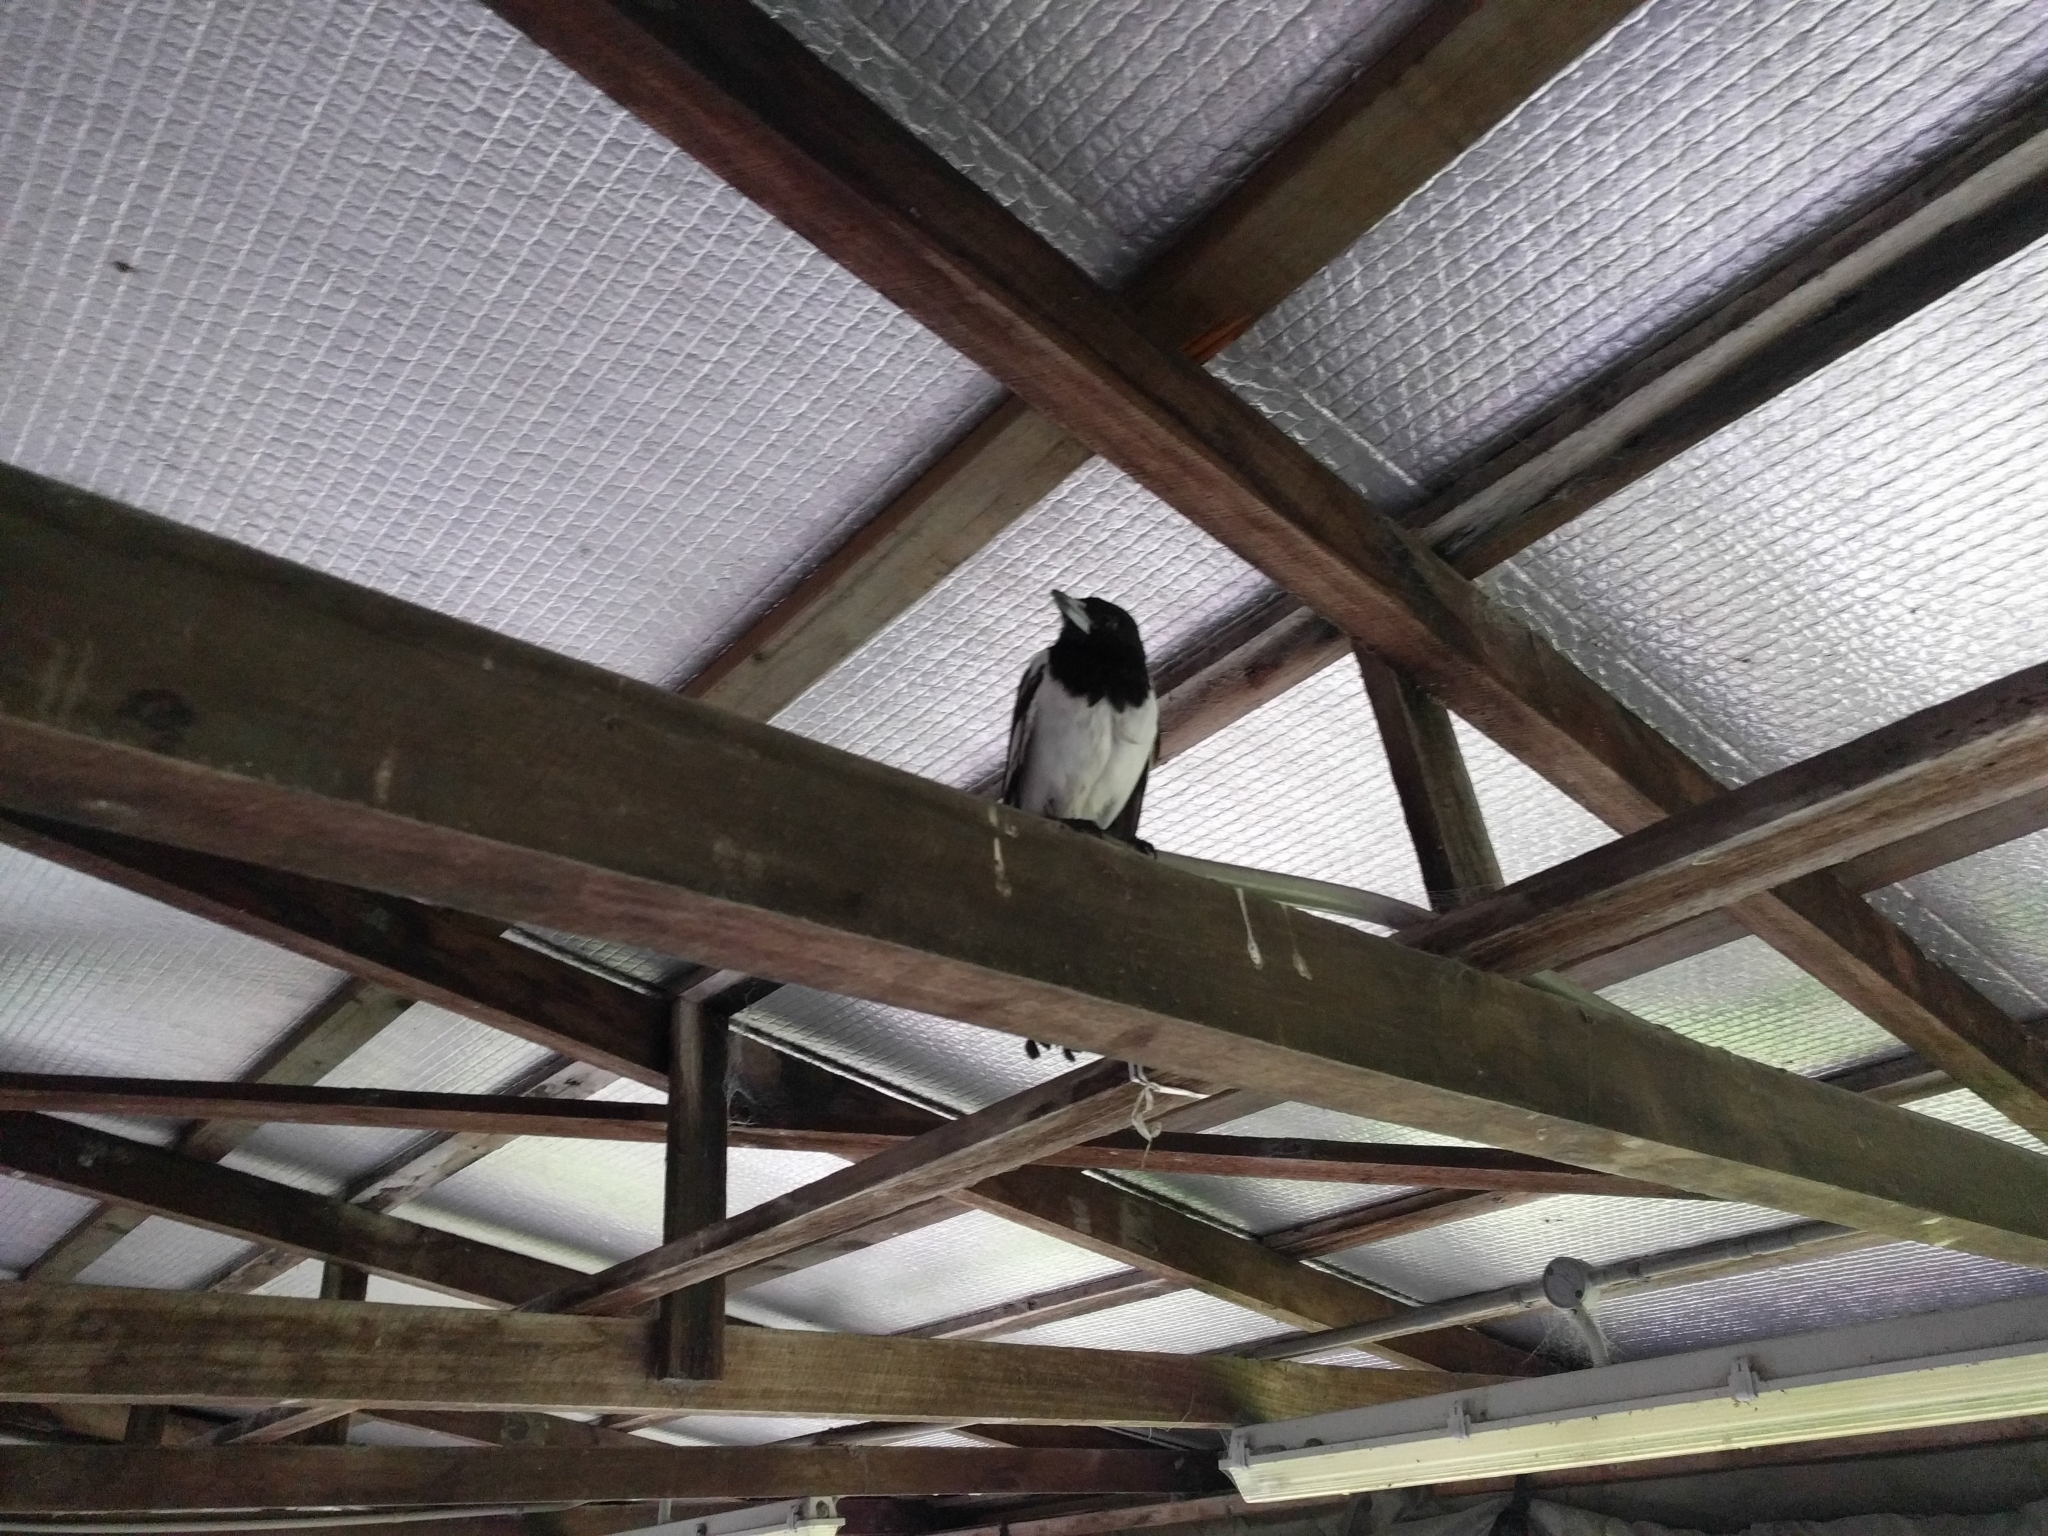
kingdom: Animalia
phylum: Chordata
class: Aves
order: Passeriformes
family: Cracticidae
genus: Cracticus
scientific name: Cracticus nigrogularis
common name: Pied butcherbird
